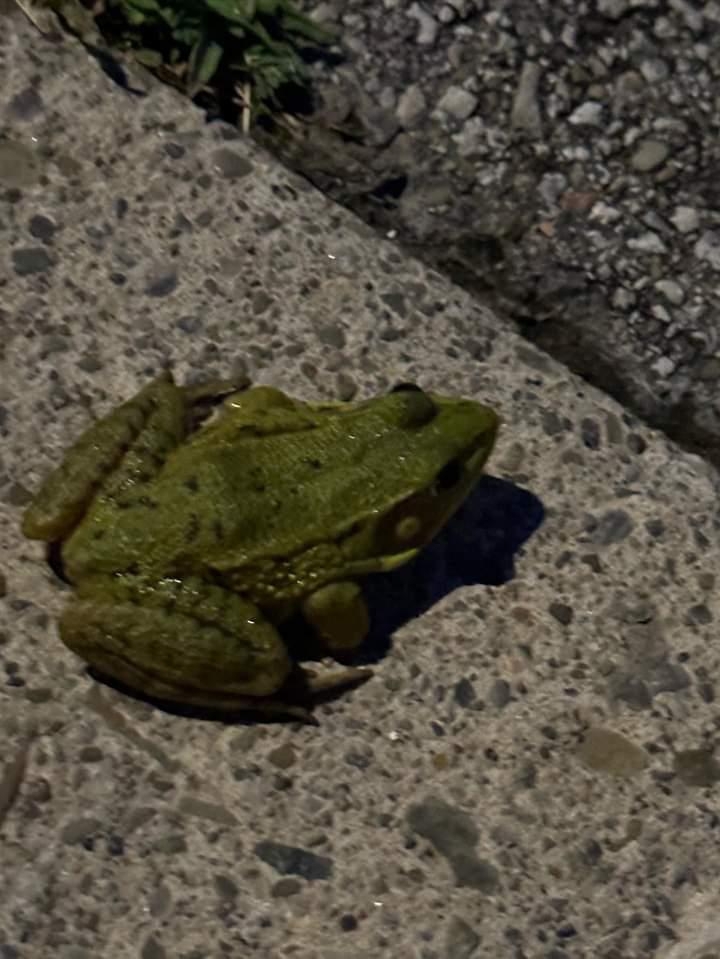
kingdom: Animalia
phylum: Chordata
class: Amphibia
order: Anura
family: Ranidae
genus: Lithobates
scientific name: Lithobates clamitans
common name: Green frog
